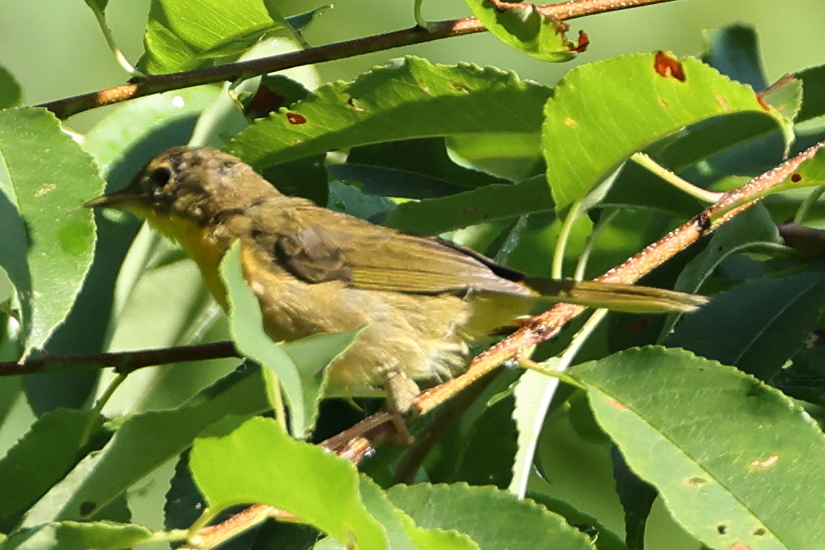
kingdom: Animalia
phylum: Chordata
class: Aves
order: Passeriformes
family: Parulidae
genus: Geothlypis
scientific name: Geothlypis trichas
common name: Common yellowthroat
